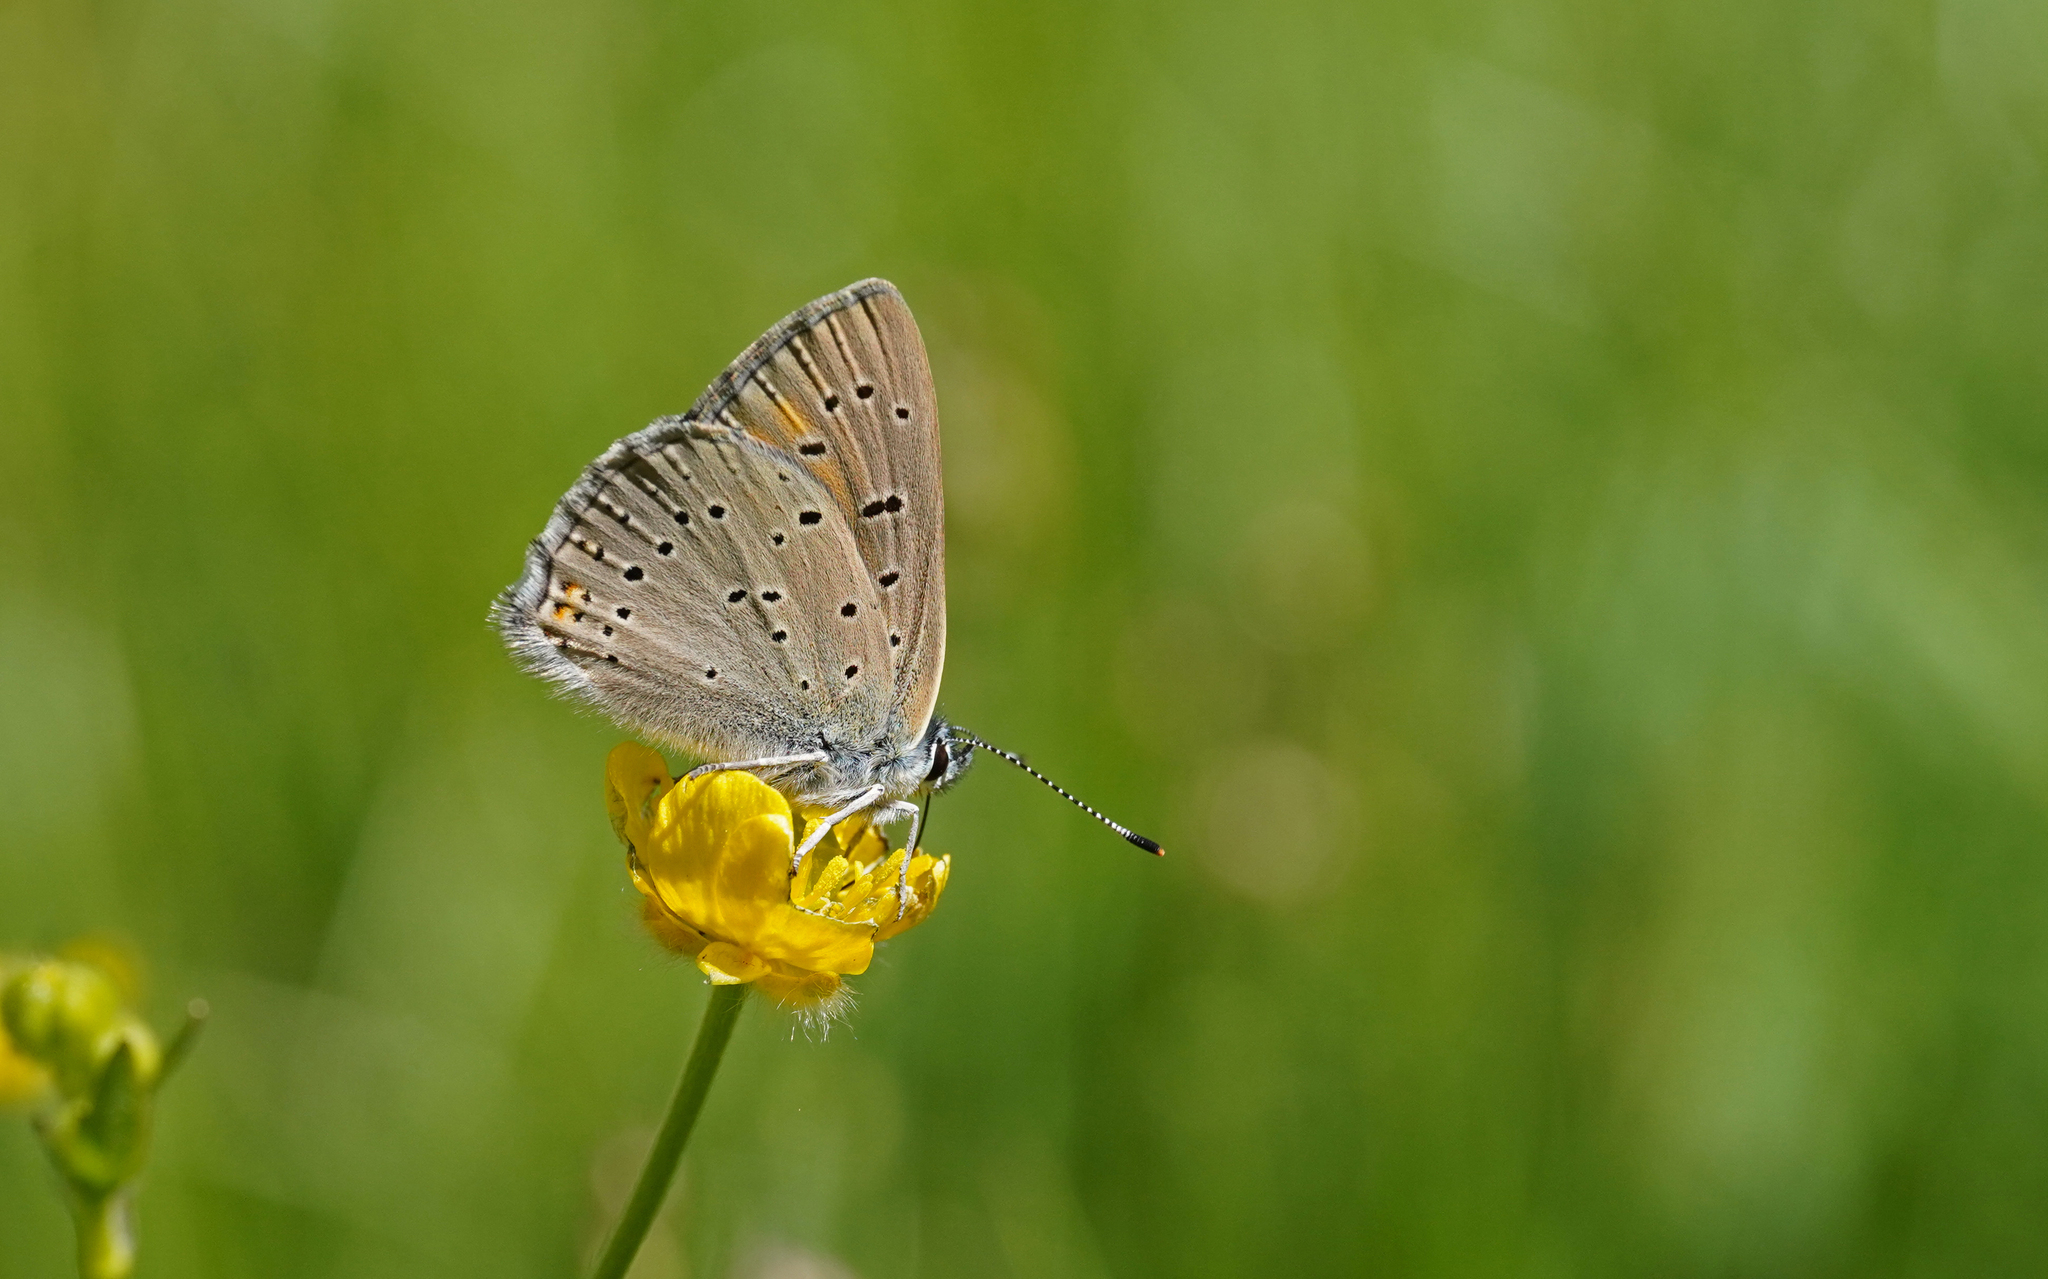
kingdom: Animalia
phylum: Arthropoda
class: Insecta
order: Lepidoptera
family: Lycaenidae
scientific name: Lycaenidae
